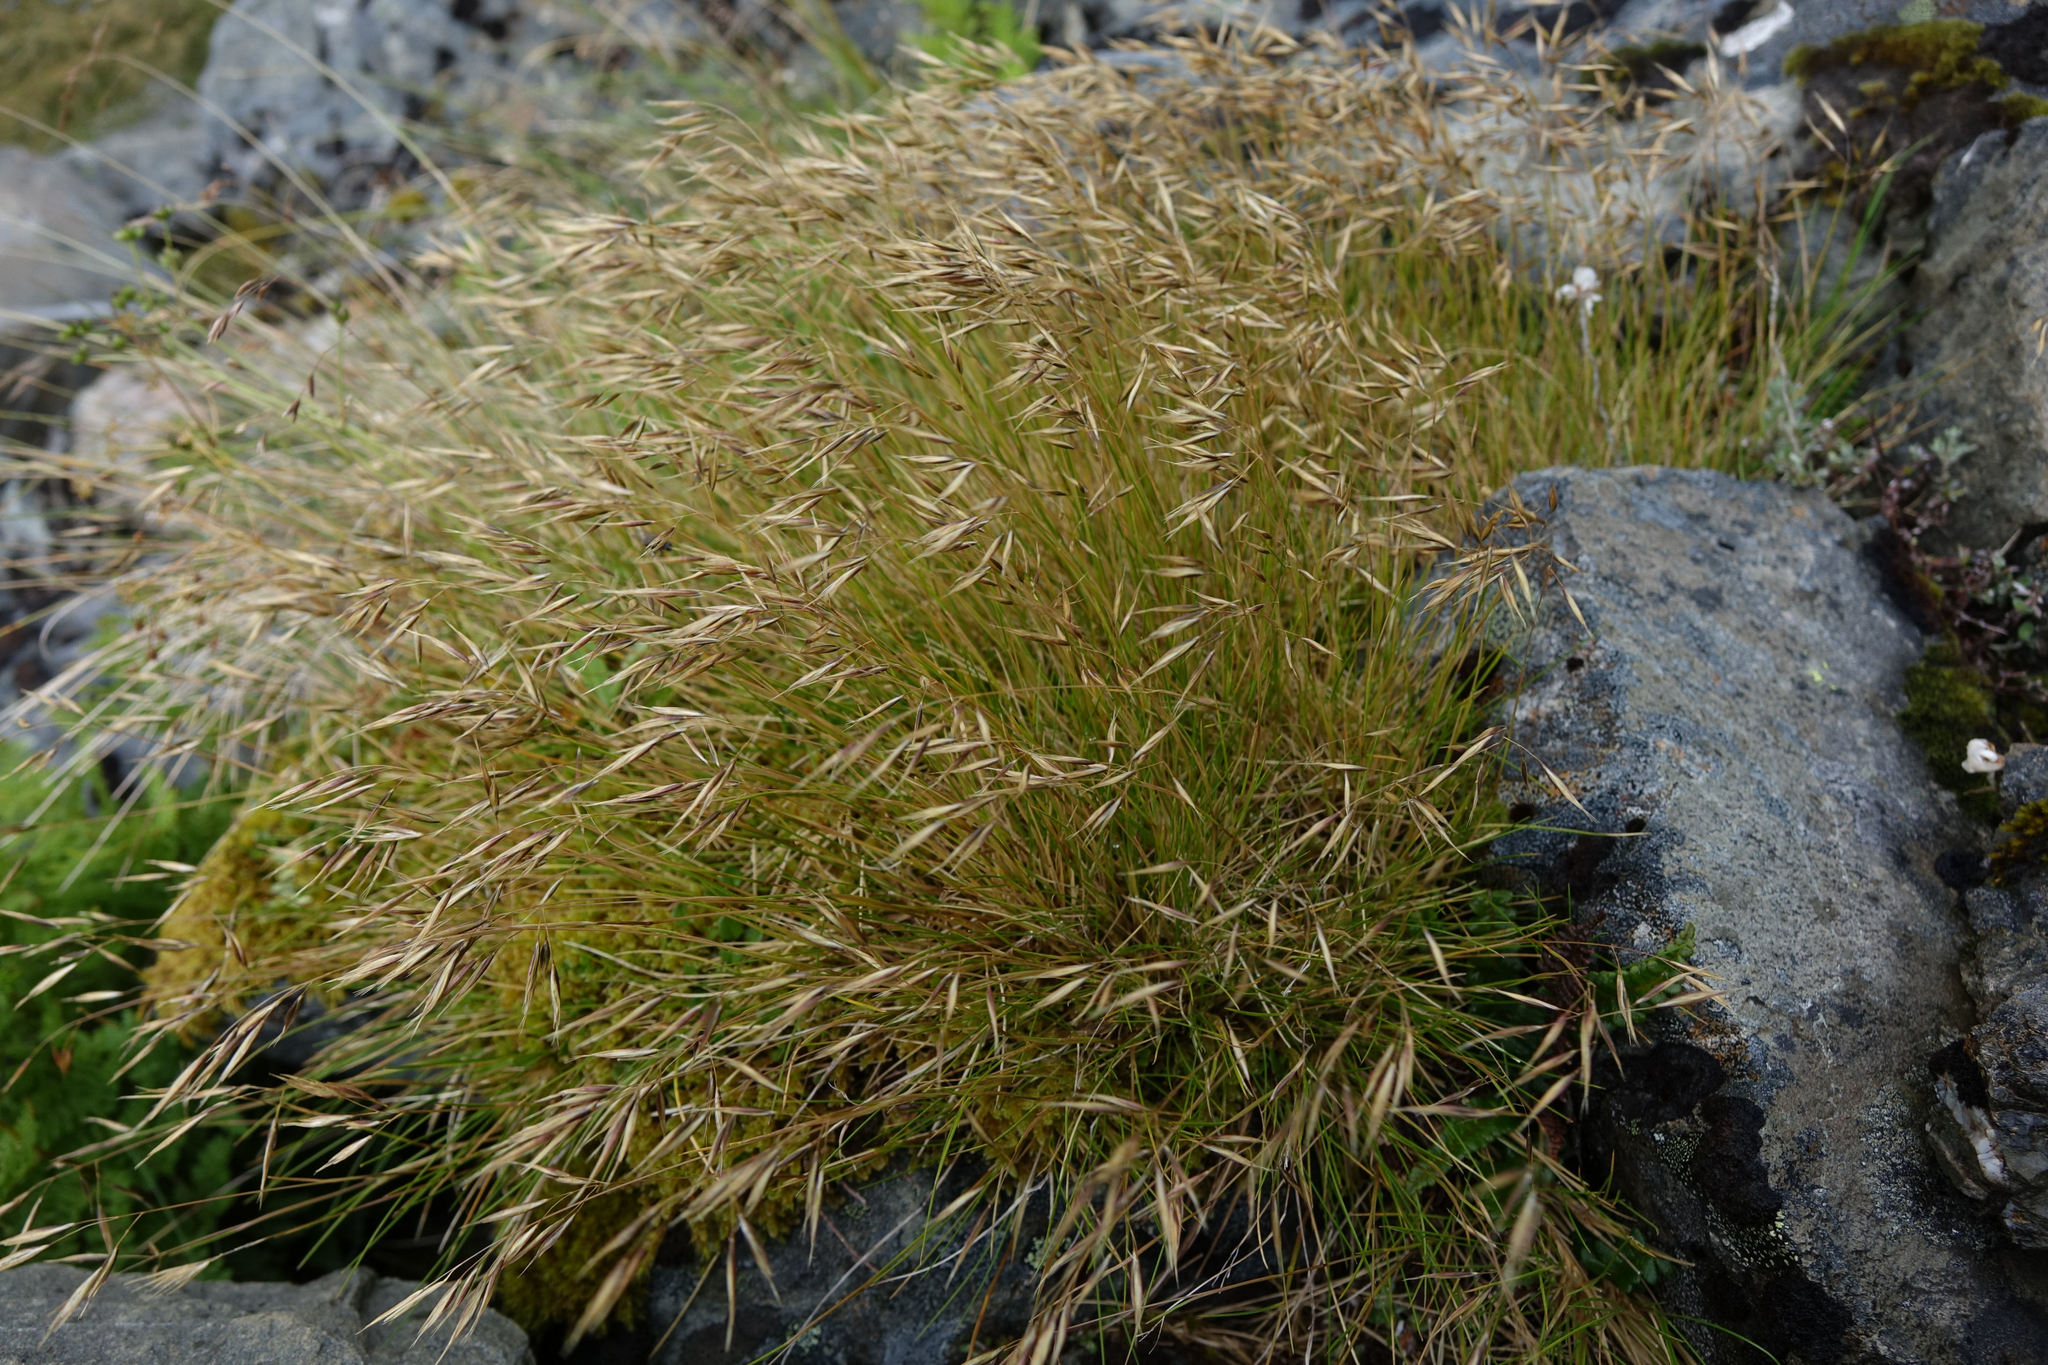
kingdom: Plantae
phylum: Tracheophyta
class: Liliopsida
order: Poales
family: Poaceae
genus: Rytidosperma
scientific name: Rytidosperma setifolium
